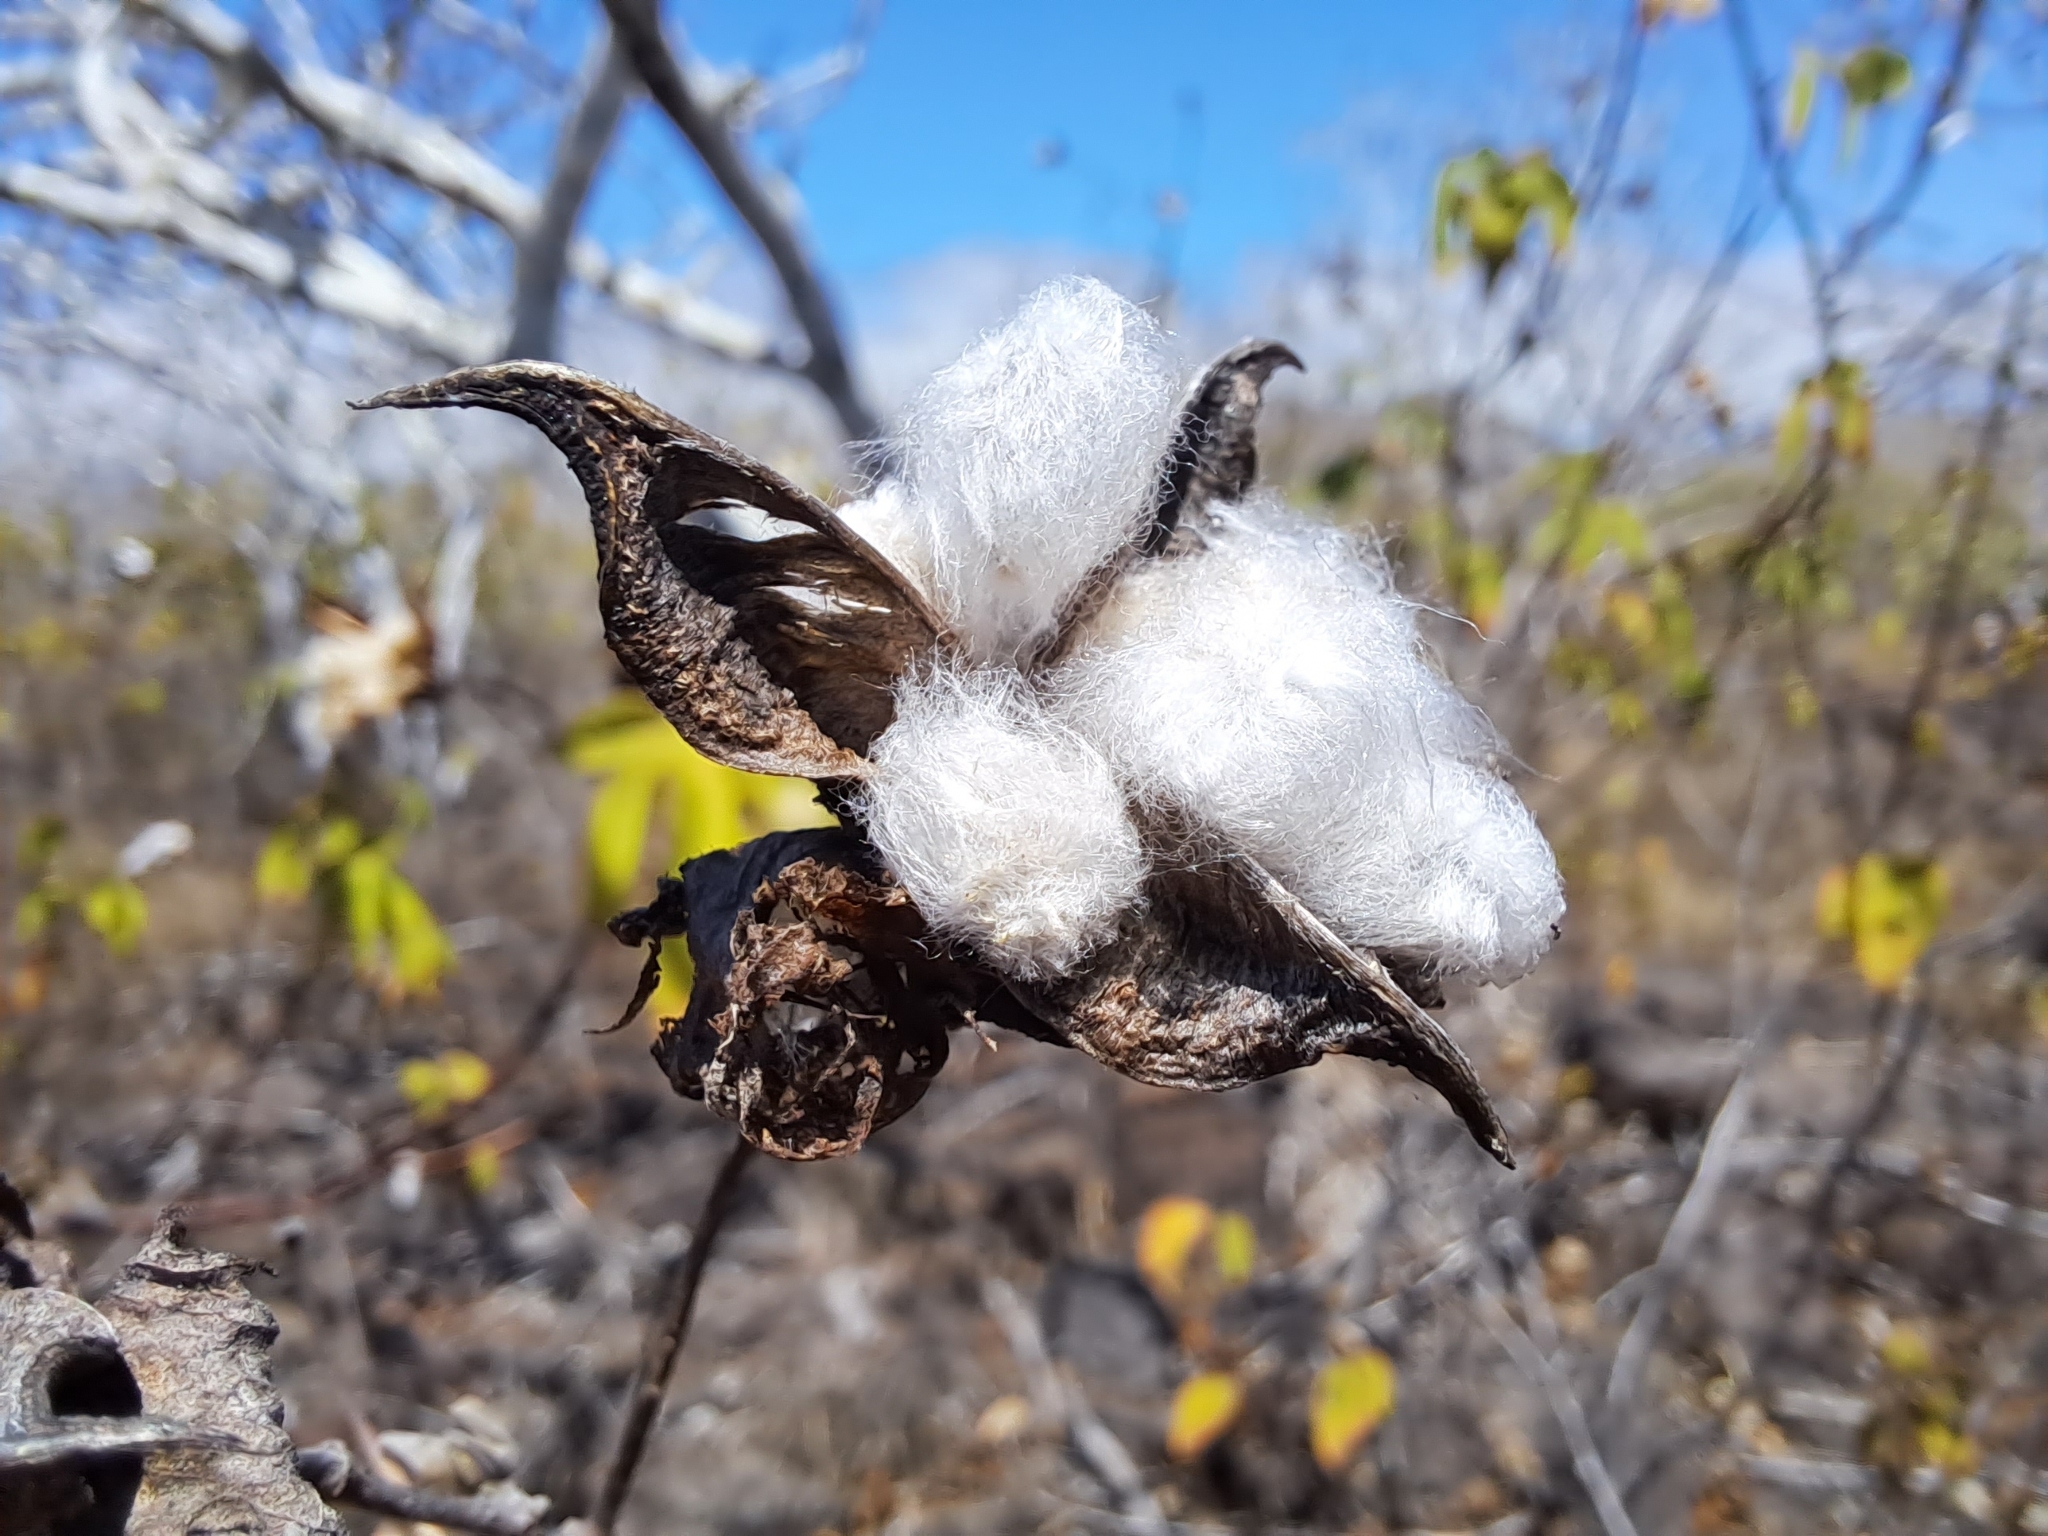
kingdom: Plantae
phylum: Tracheophyta
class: Magnoliopsida
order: Malvales
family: Malvaceae
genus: Gossypium
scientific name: Gossypium darwinii
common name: Darwin's cotton
